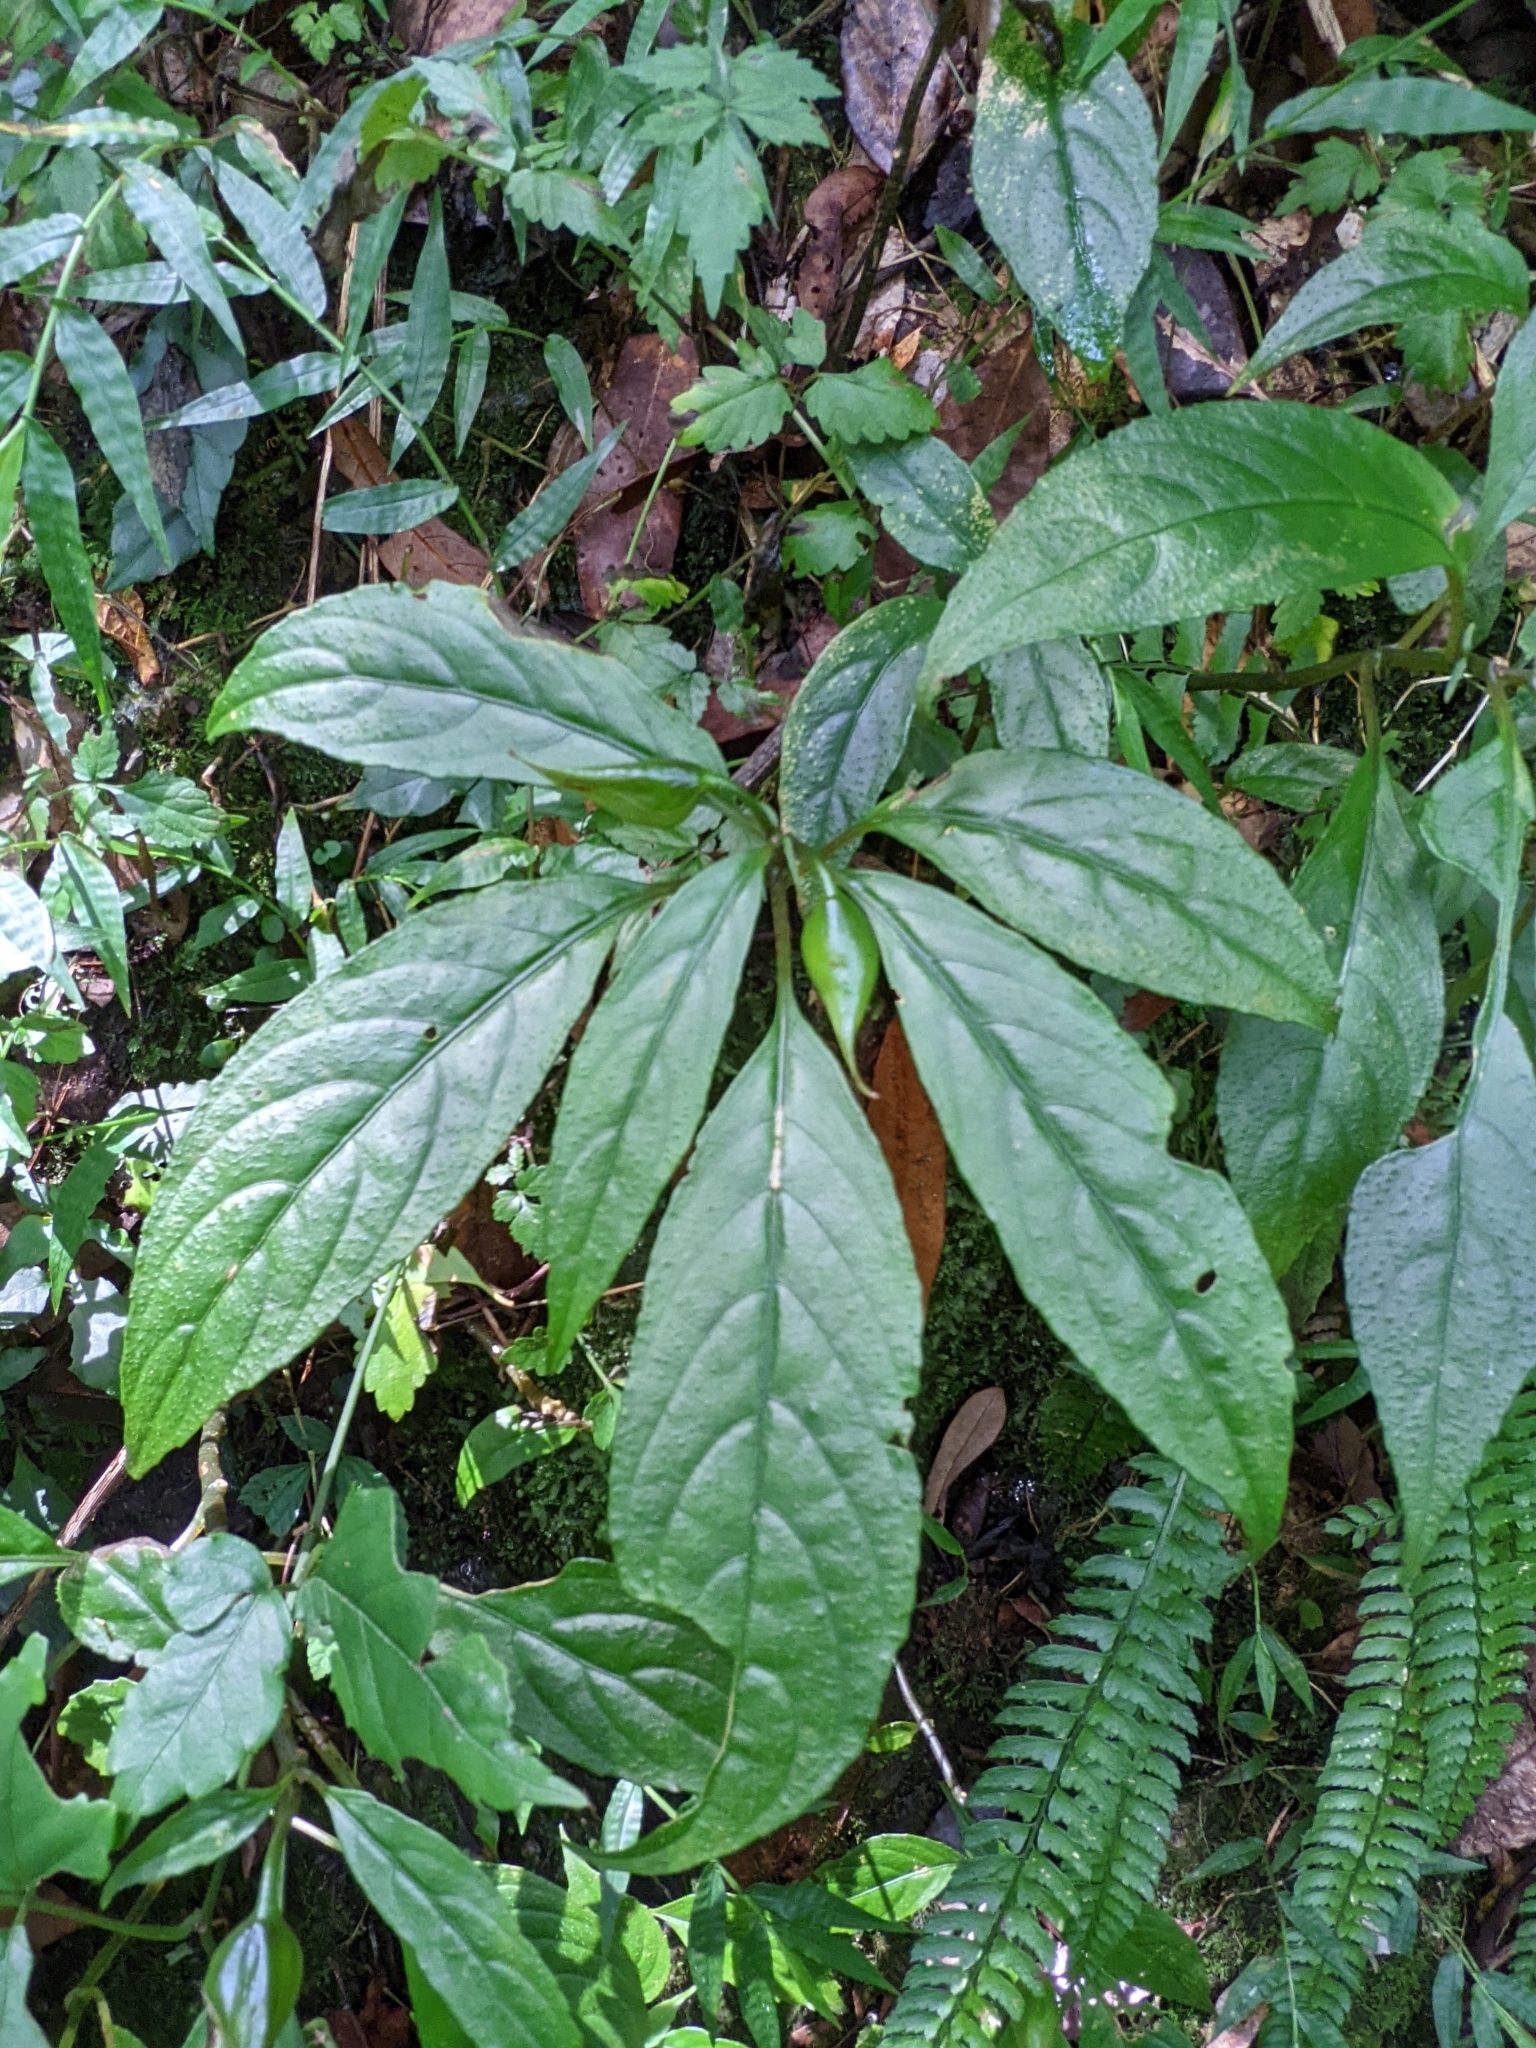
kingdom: Plantae
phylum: Tracheophyta
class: Magnoliopsida
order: Lamiales
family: Gesneriaceae
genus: Hemiboea
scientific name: Hemiboea bicornuta
